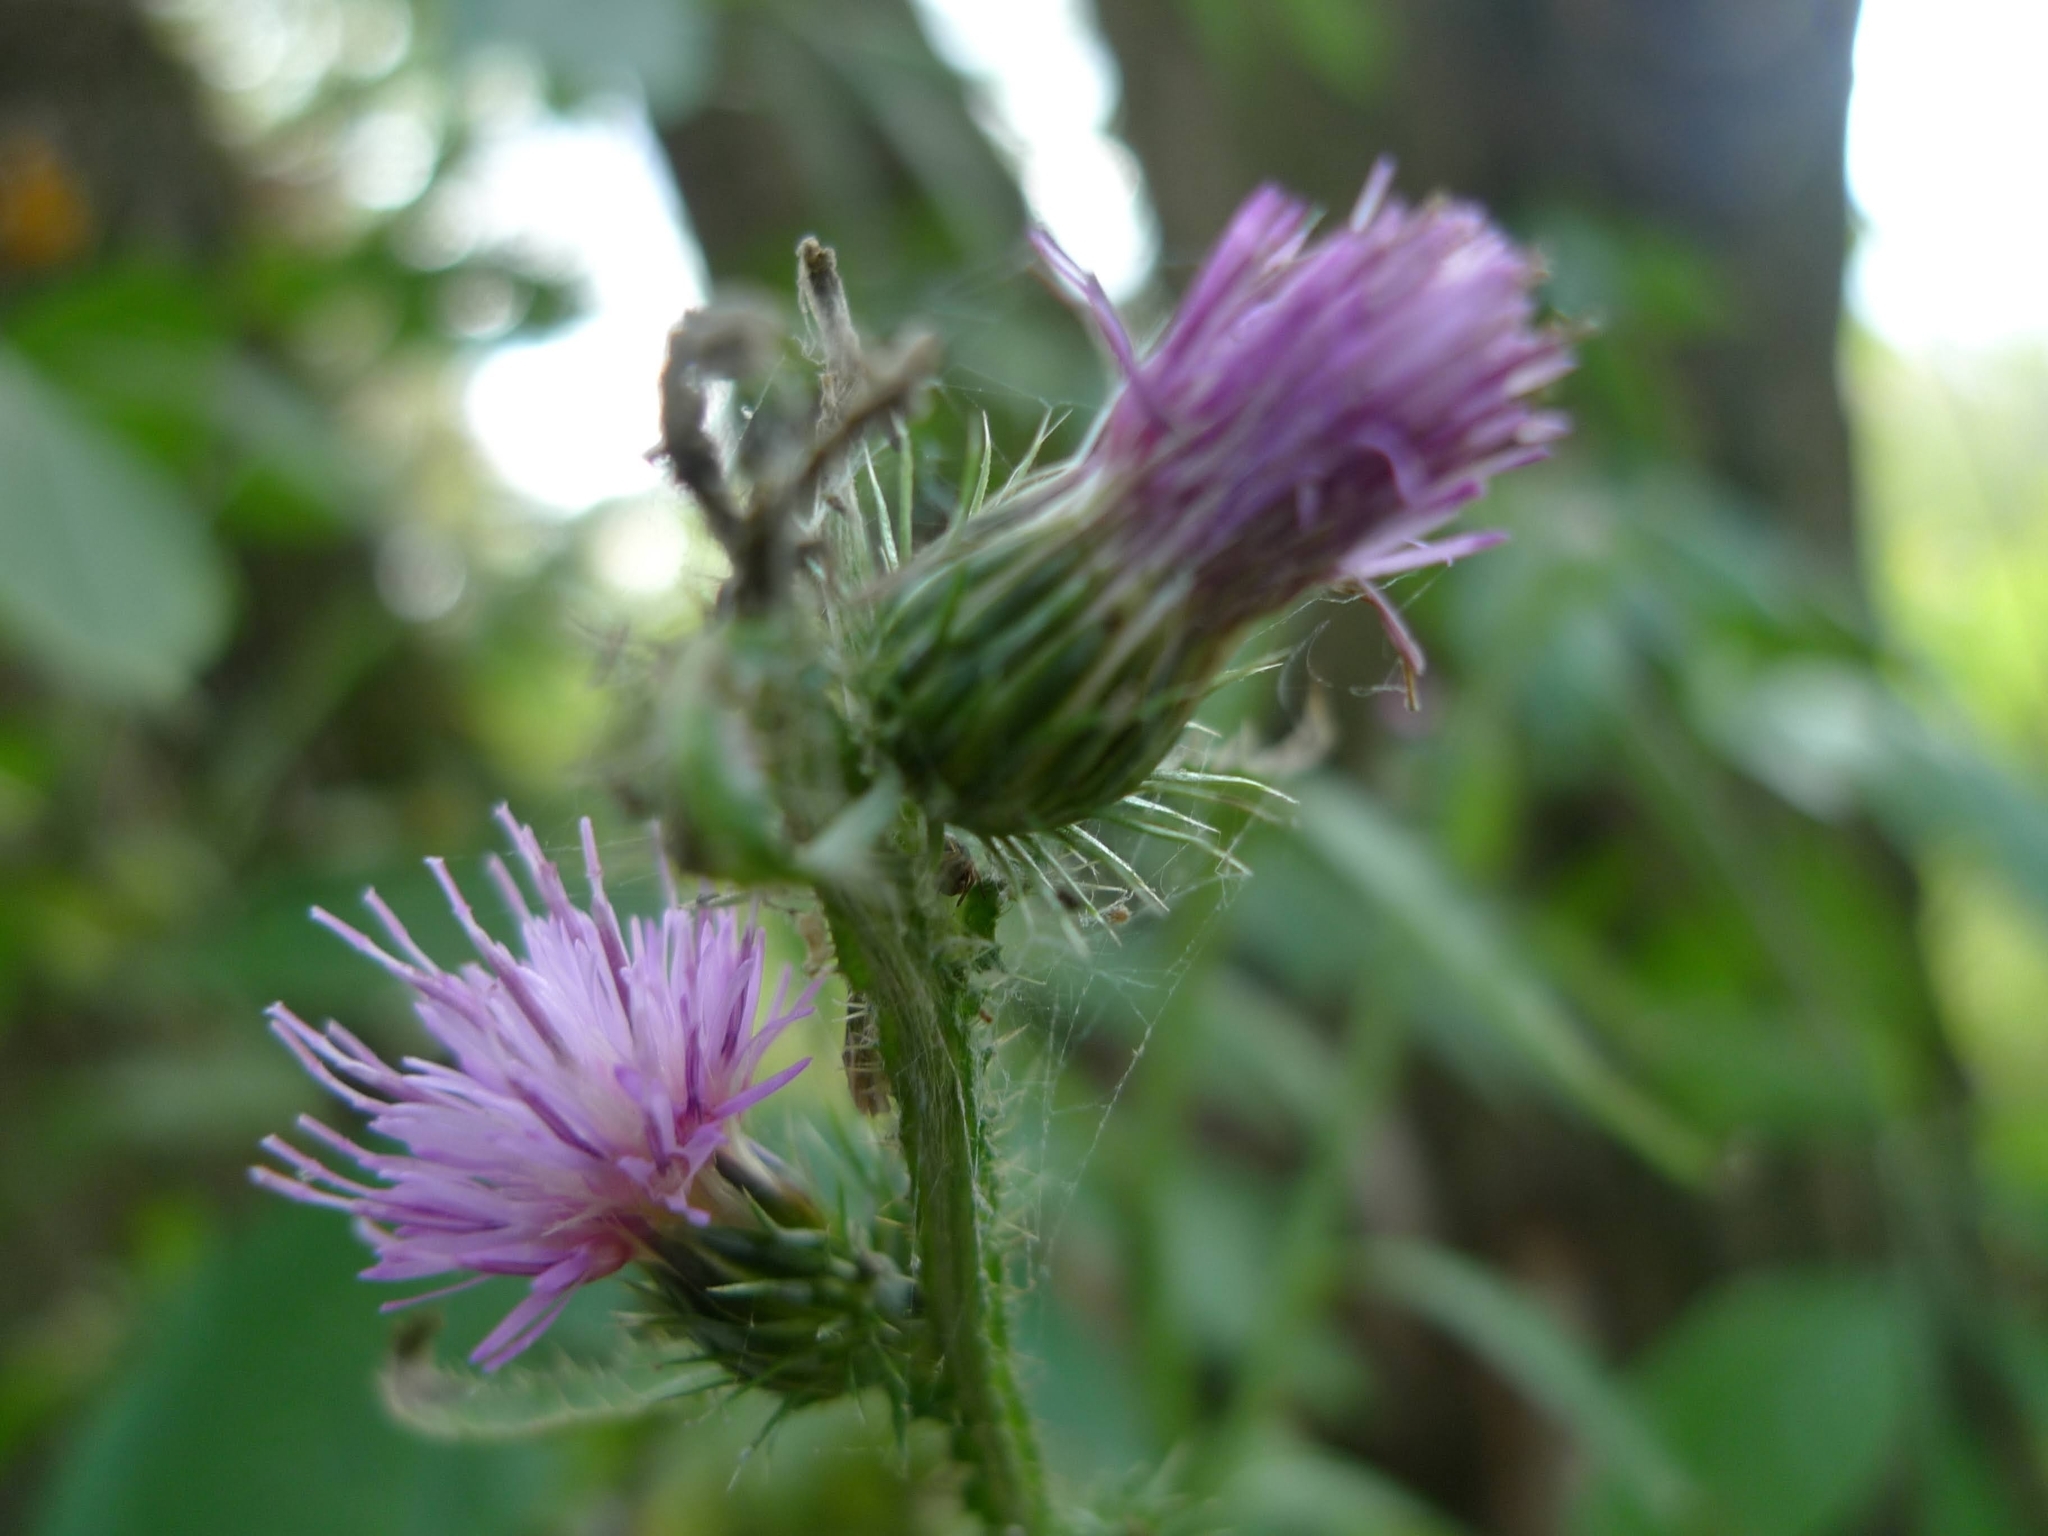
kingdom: Plantae
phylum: Tracheophyta
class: Magnoliopsida
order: Asterales
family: Asteraceae
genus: Carduus
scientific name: Carduus crispus
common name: Welted thistle
